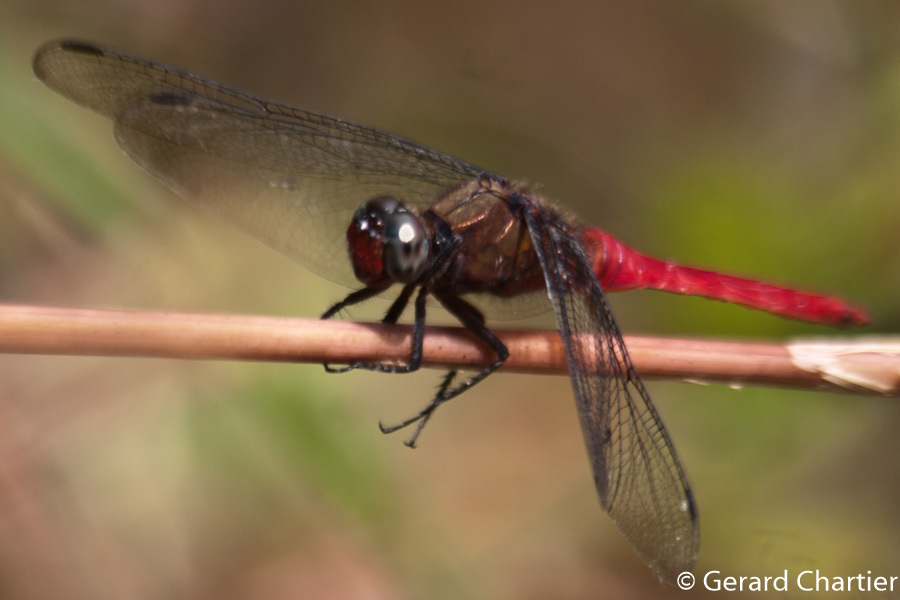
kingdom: Animalia
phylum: Arthropoda
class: Insecta
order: Odonata
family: Libellulidae
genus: Orthetrum
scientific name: Orthetrum chrysis
